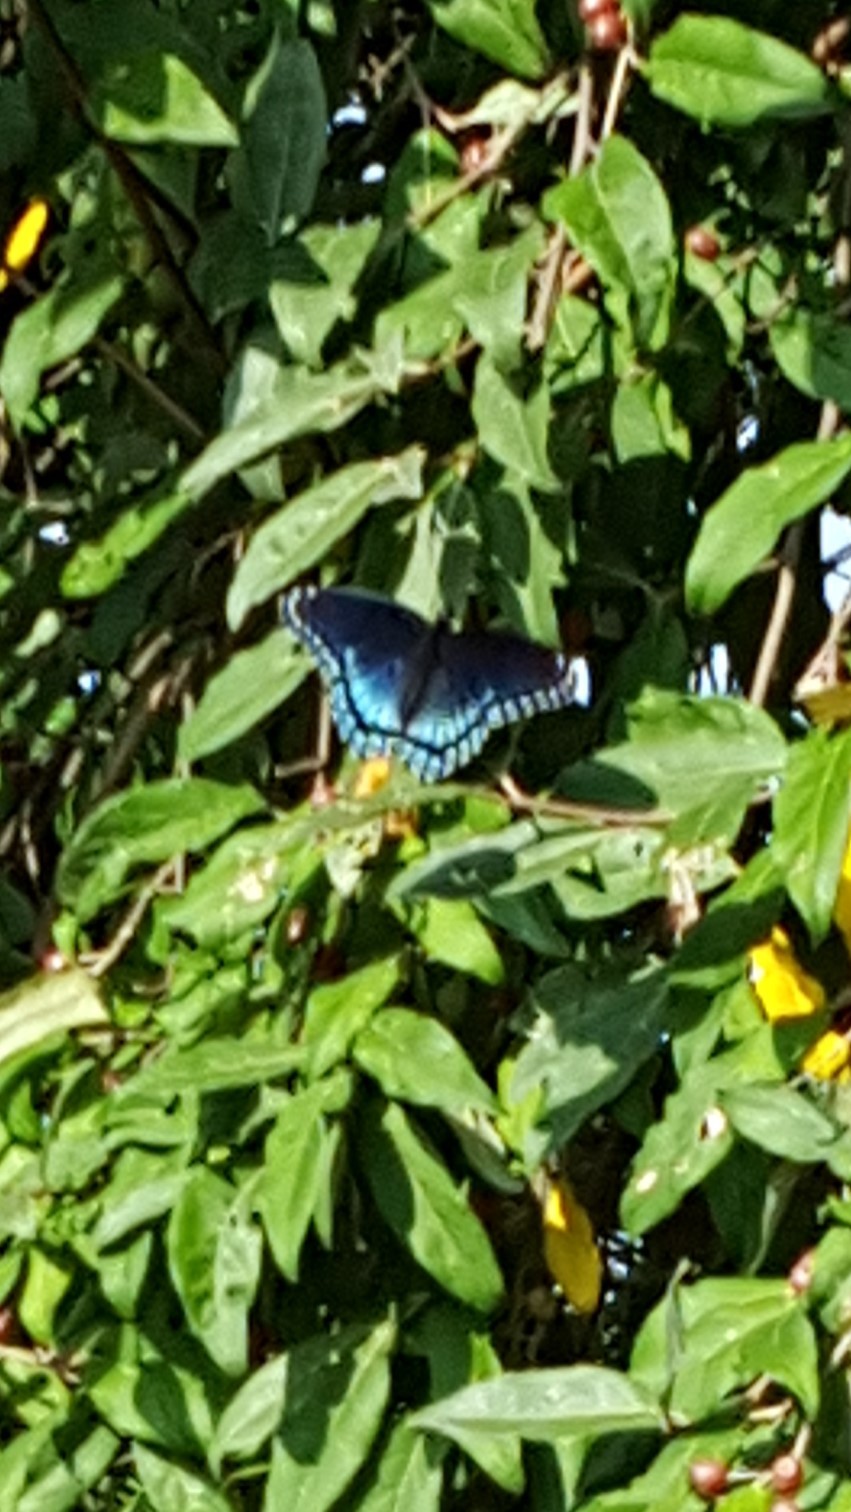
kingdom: Animalia
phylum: Arthropoda
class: Insecta
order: Lepidoptera
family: Nymphalidae
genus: Limenitis
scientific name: Limenitis astyanax
